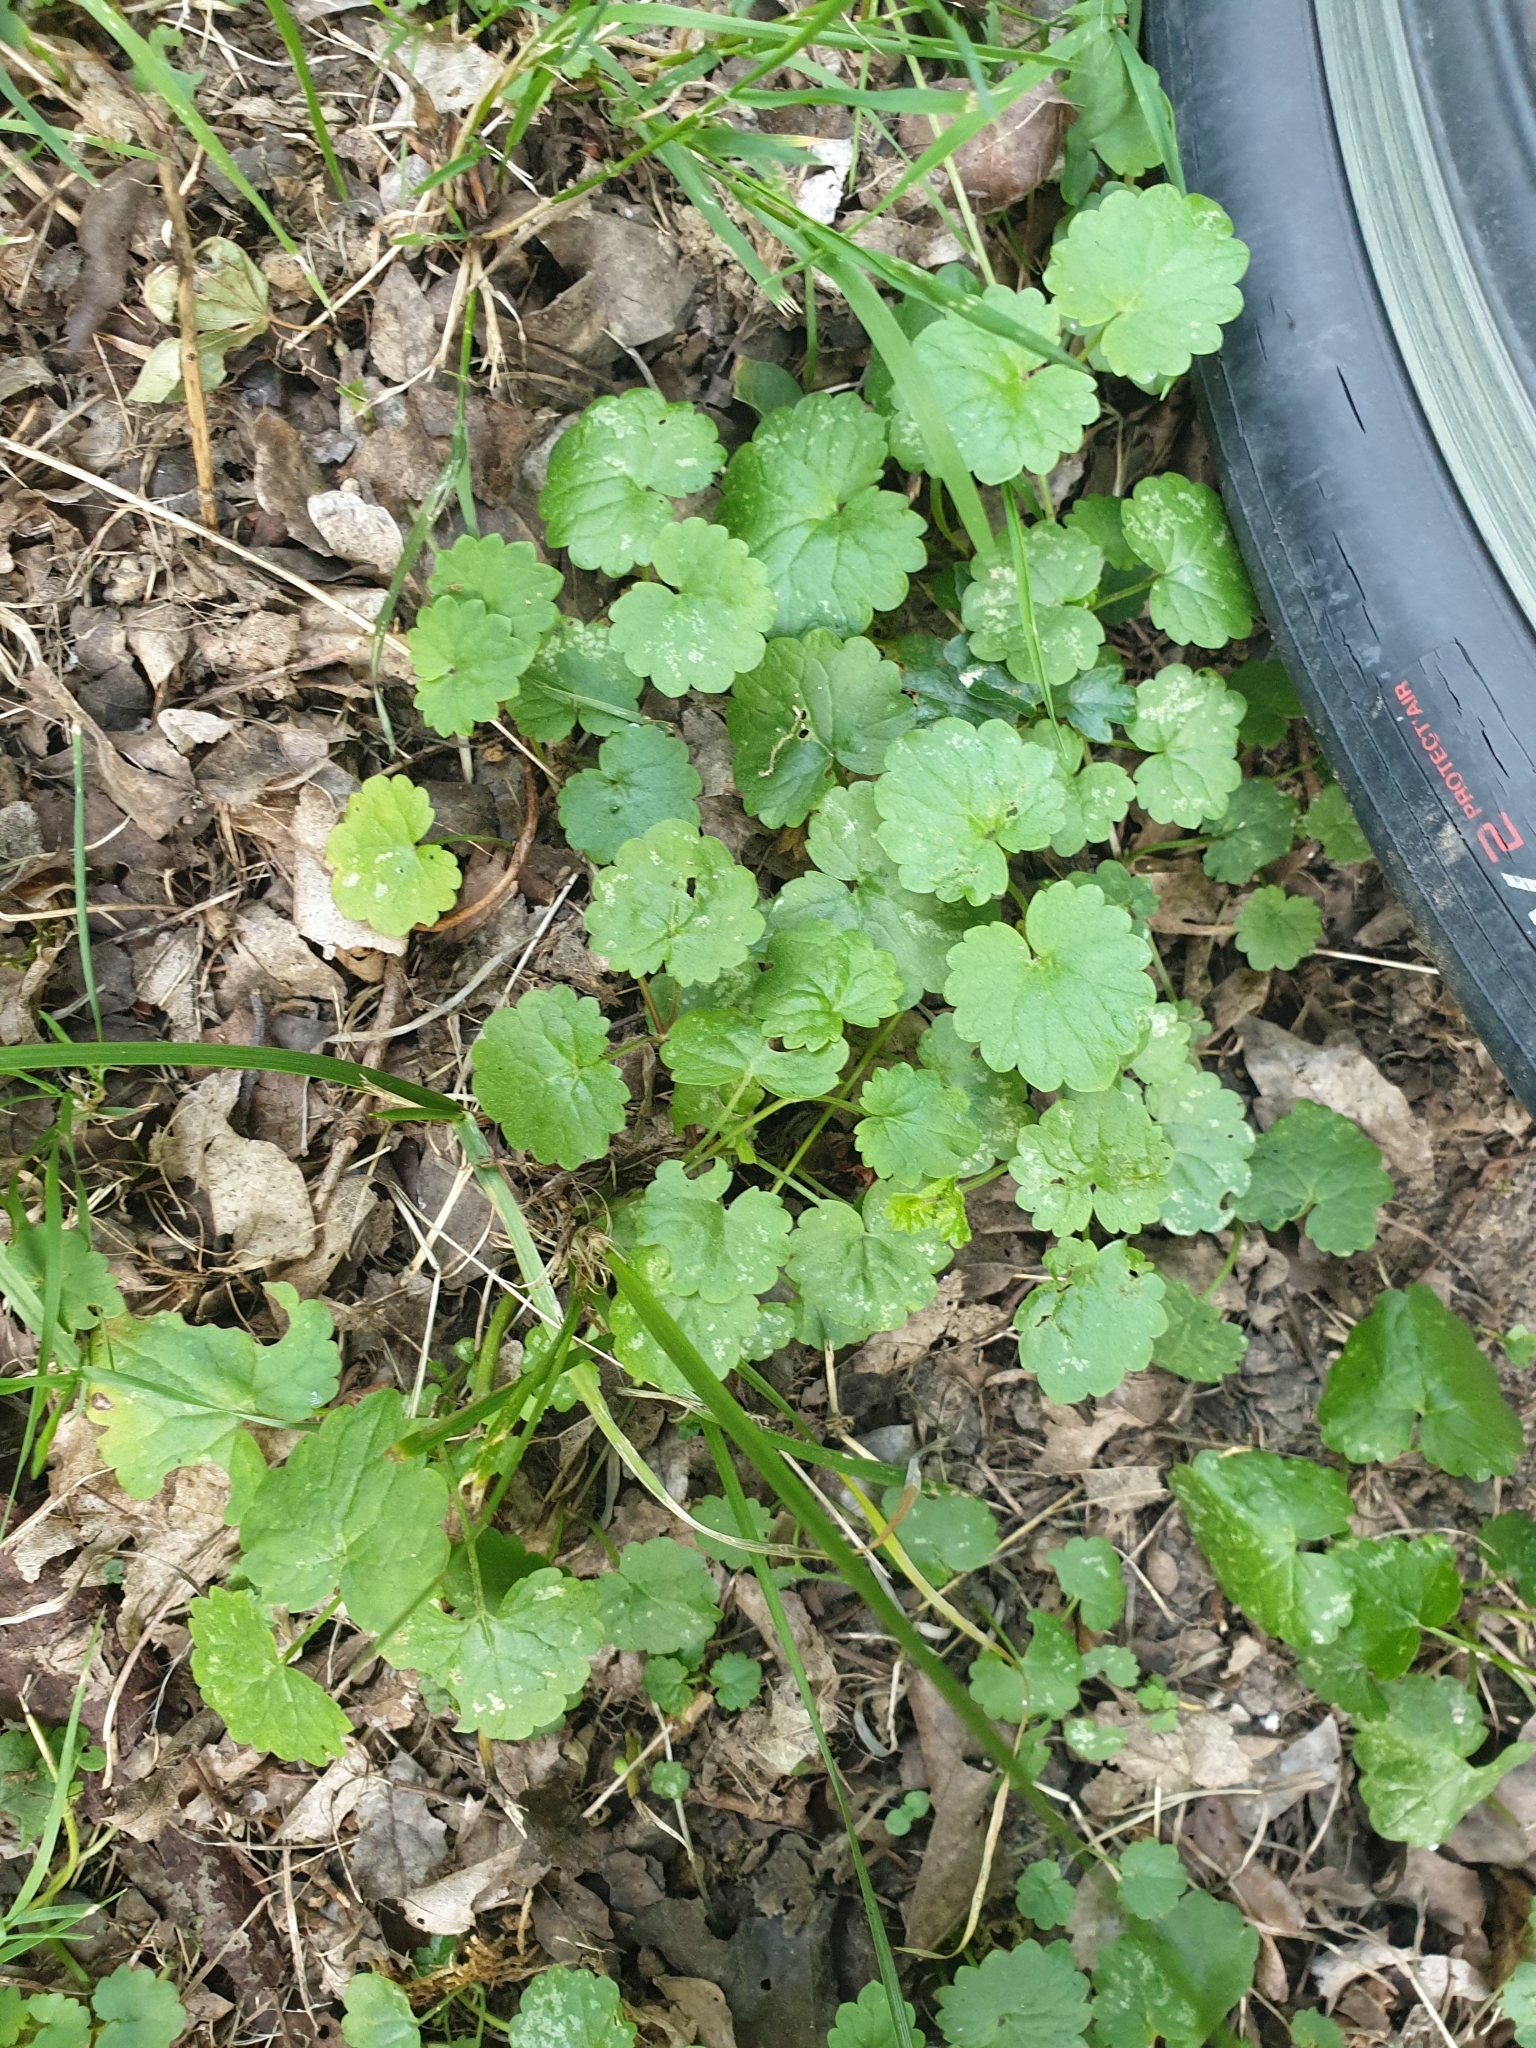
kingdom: Plantae
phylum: Tracheophyta
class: Magnoliopsida
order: Lamiales
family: Lamiaceae
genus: Glechoma
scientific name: Glechoma hederacea
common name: Ground ivy
